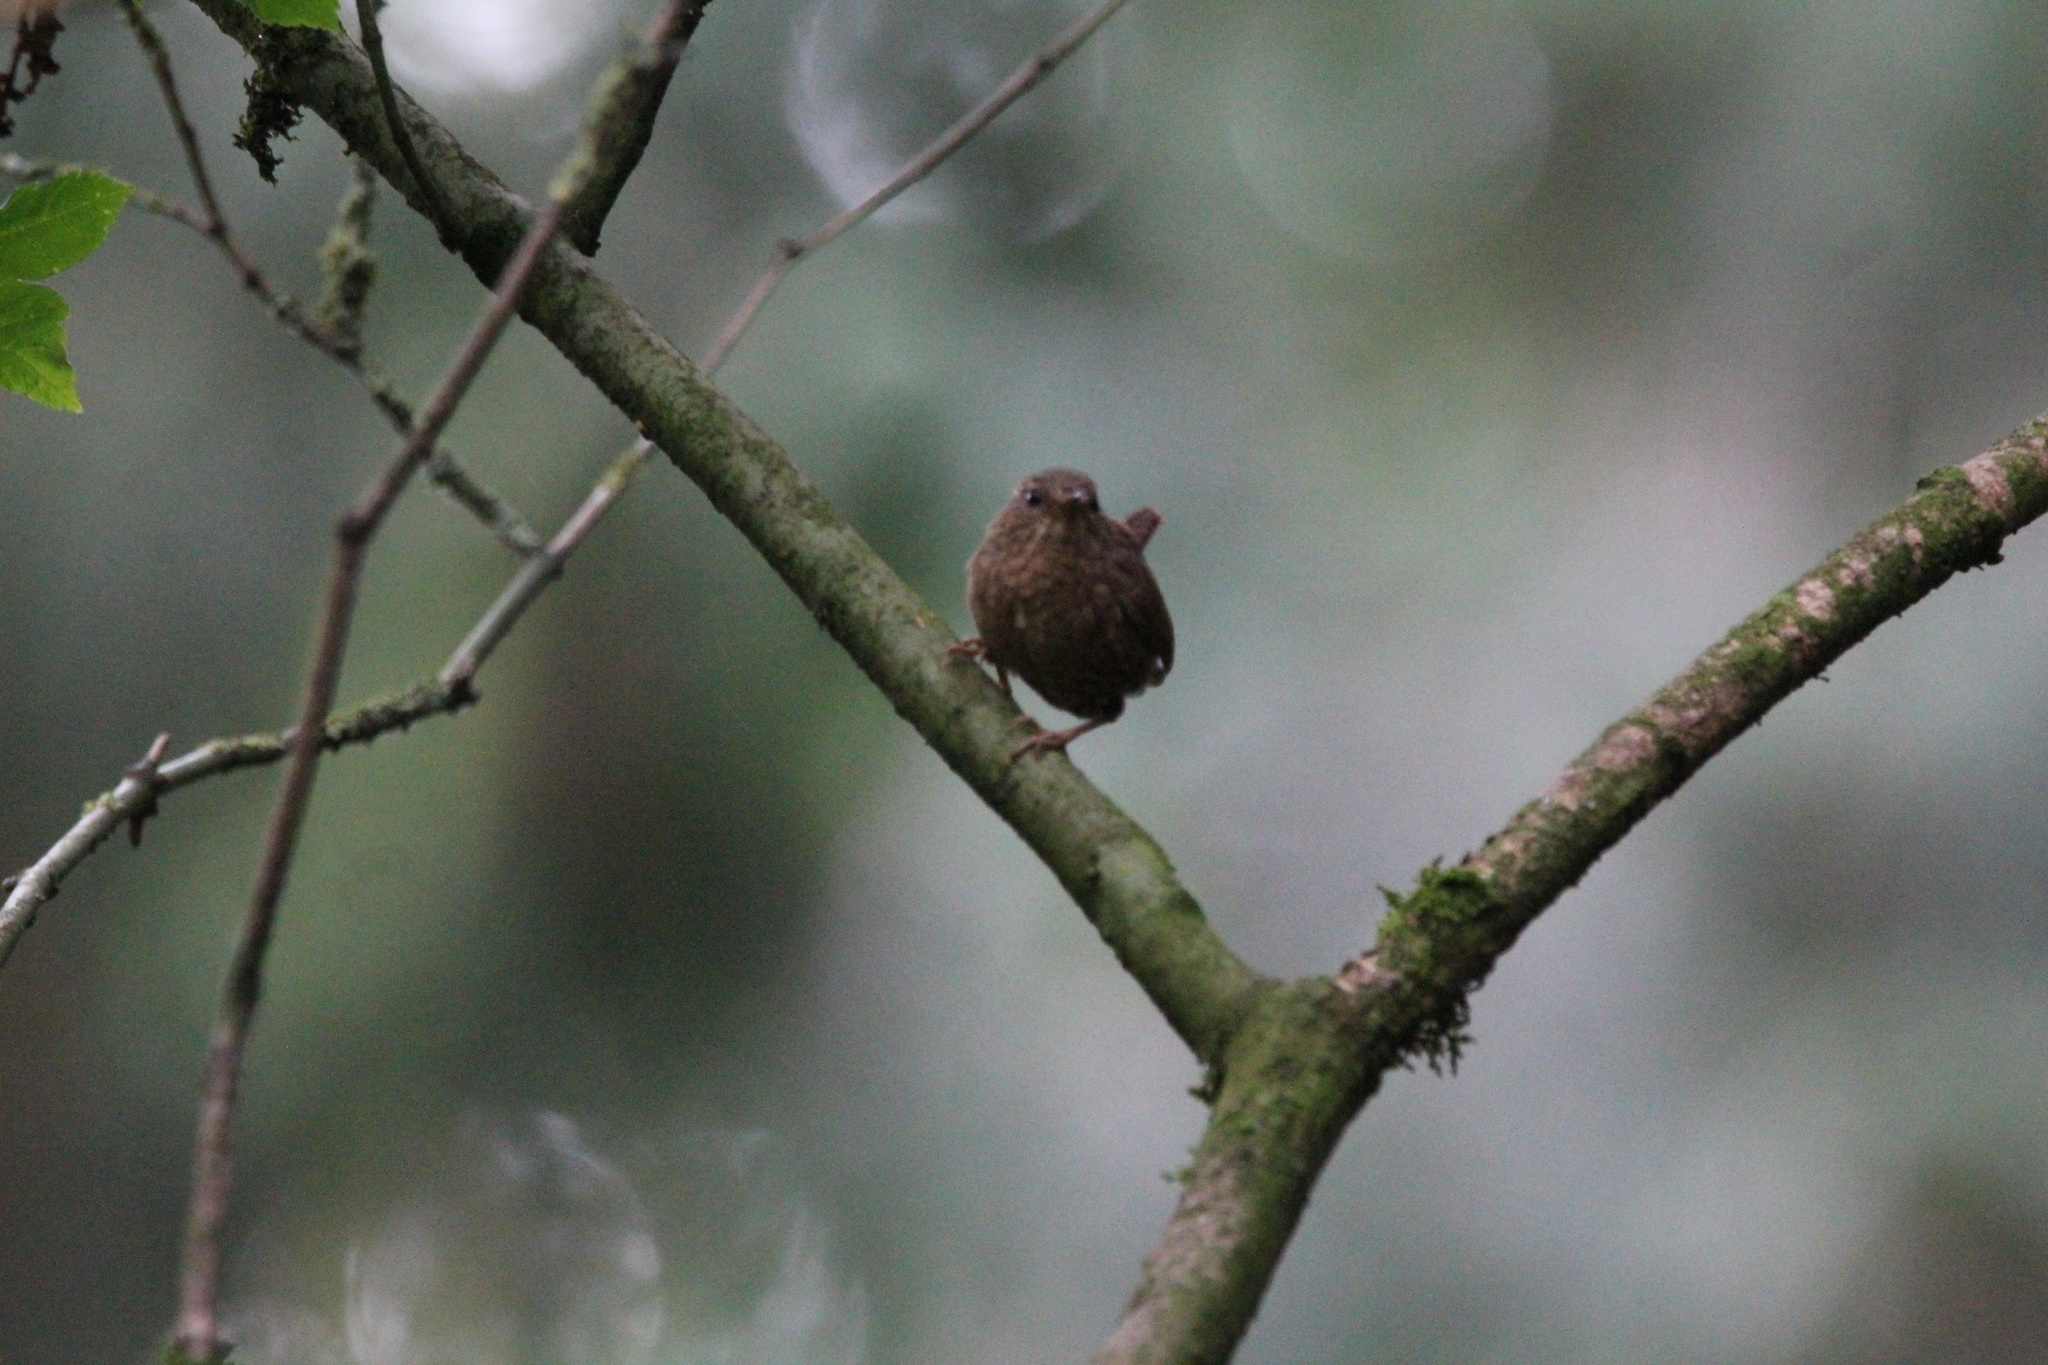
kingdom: Animalia
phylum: Chordata
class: Aves
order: Passeriformes
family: Troglodytidae
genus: Troglodytes
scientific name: Troglodytes pacificus
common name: Pacific wren
